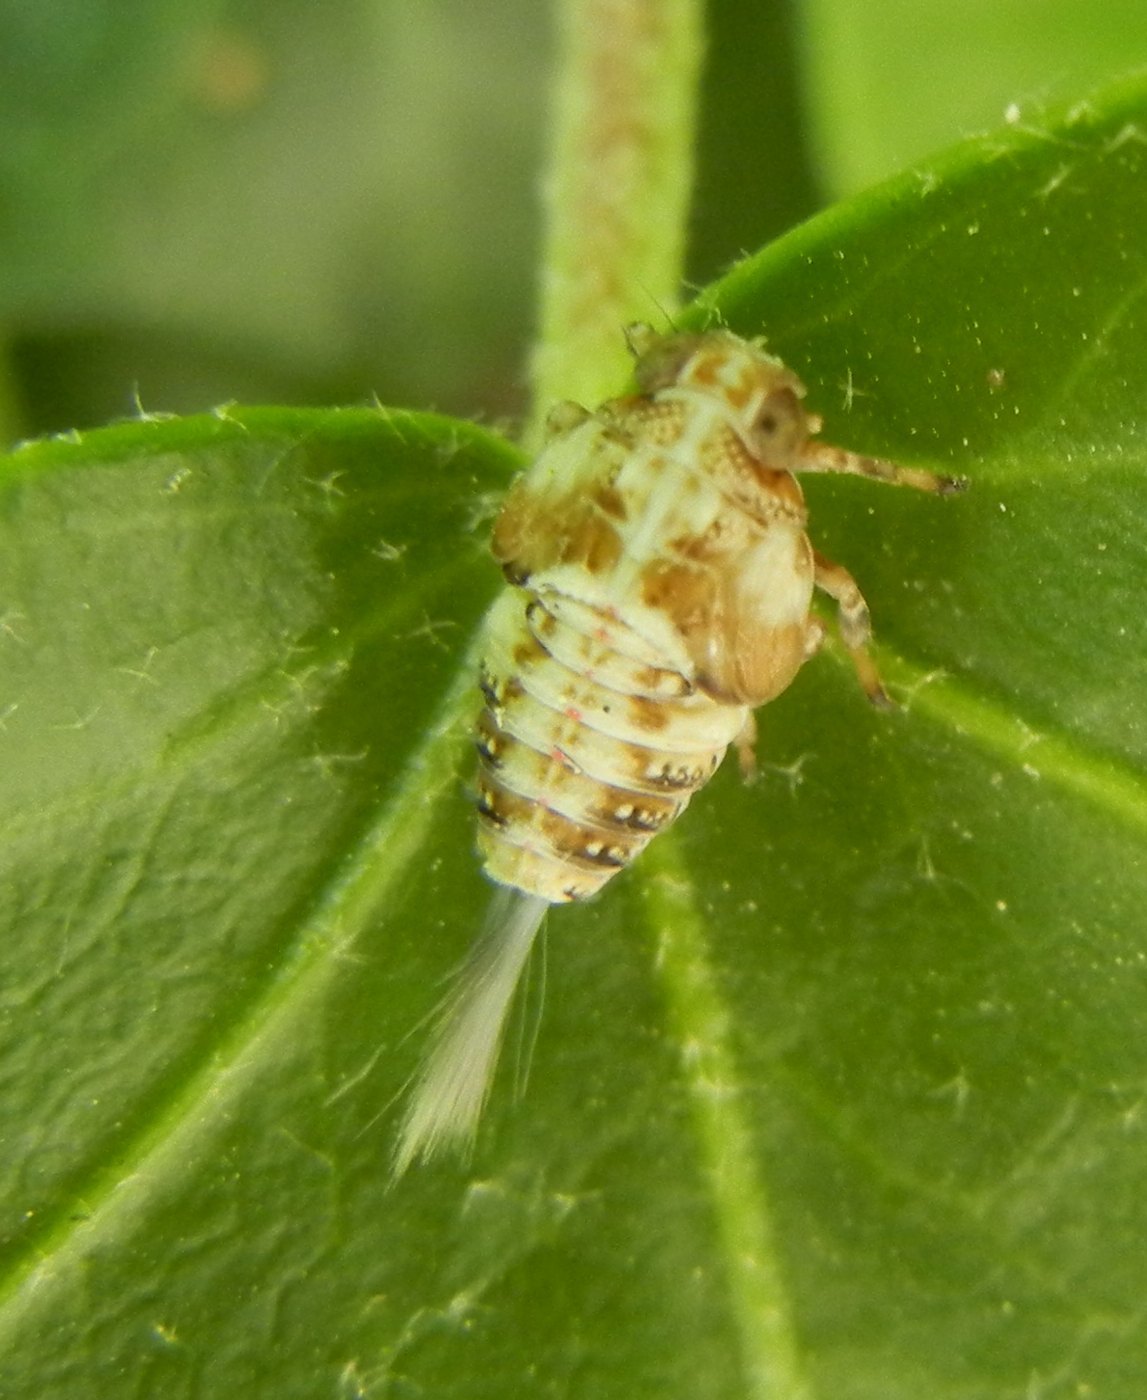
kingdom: Animalia
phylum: Arthropoda
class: Insecta
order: Hemiptera
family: Issidae
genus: Issus
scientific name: Issus coleoptratus
